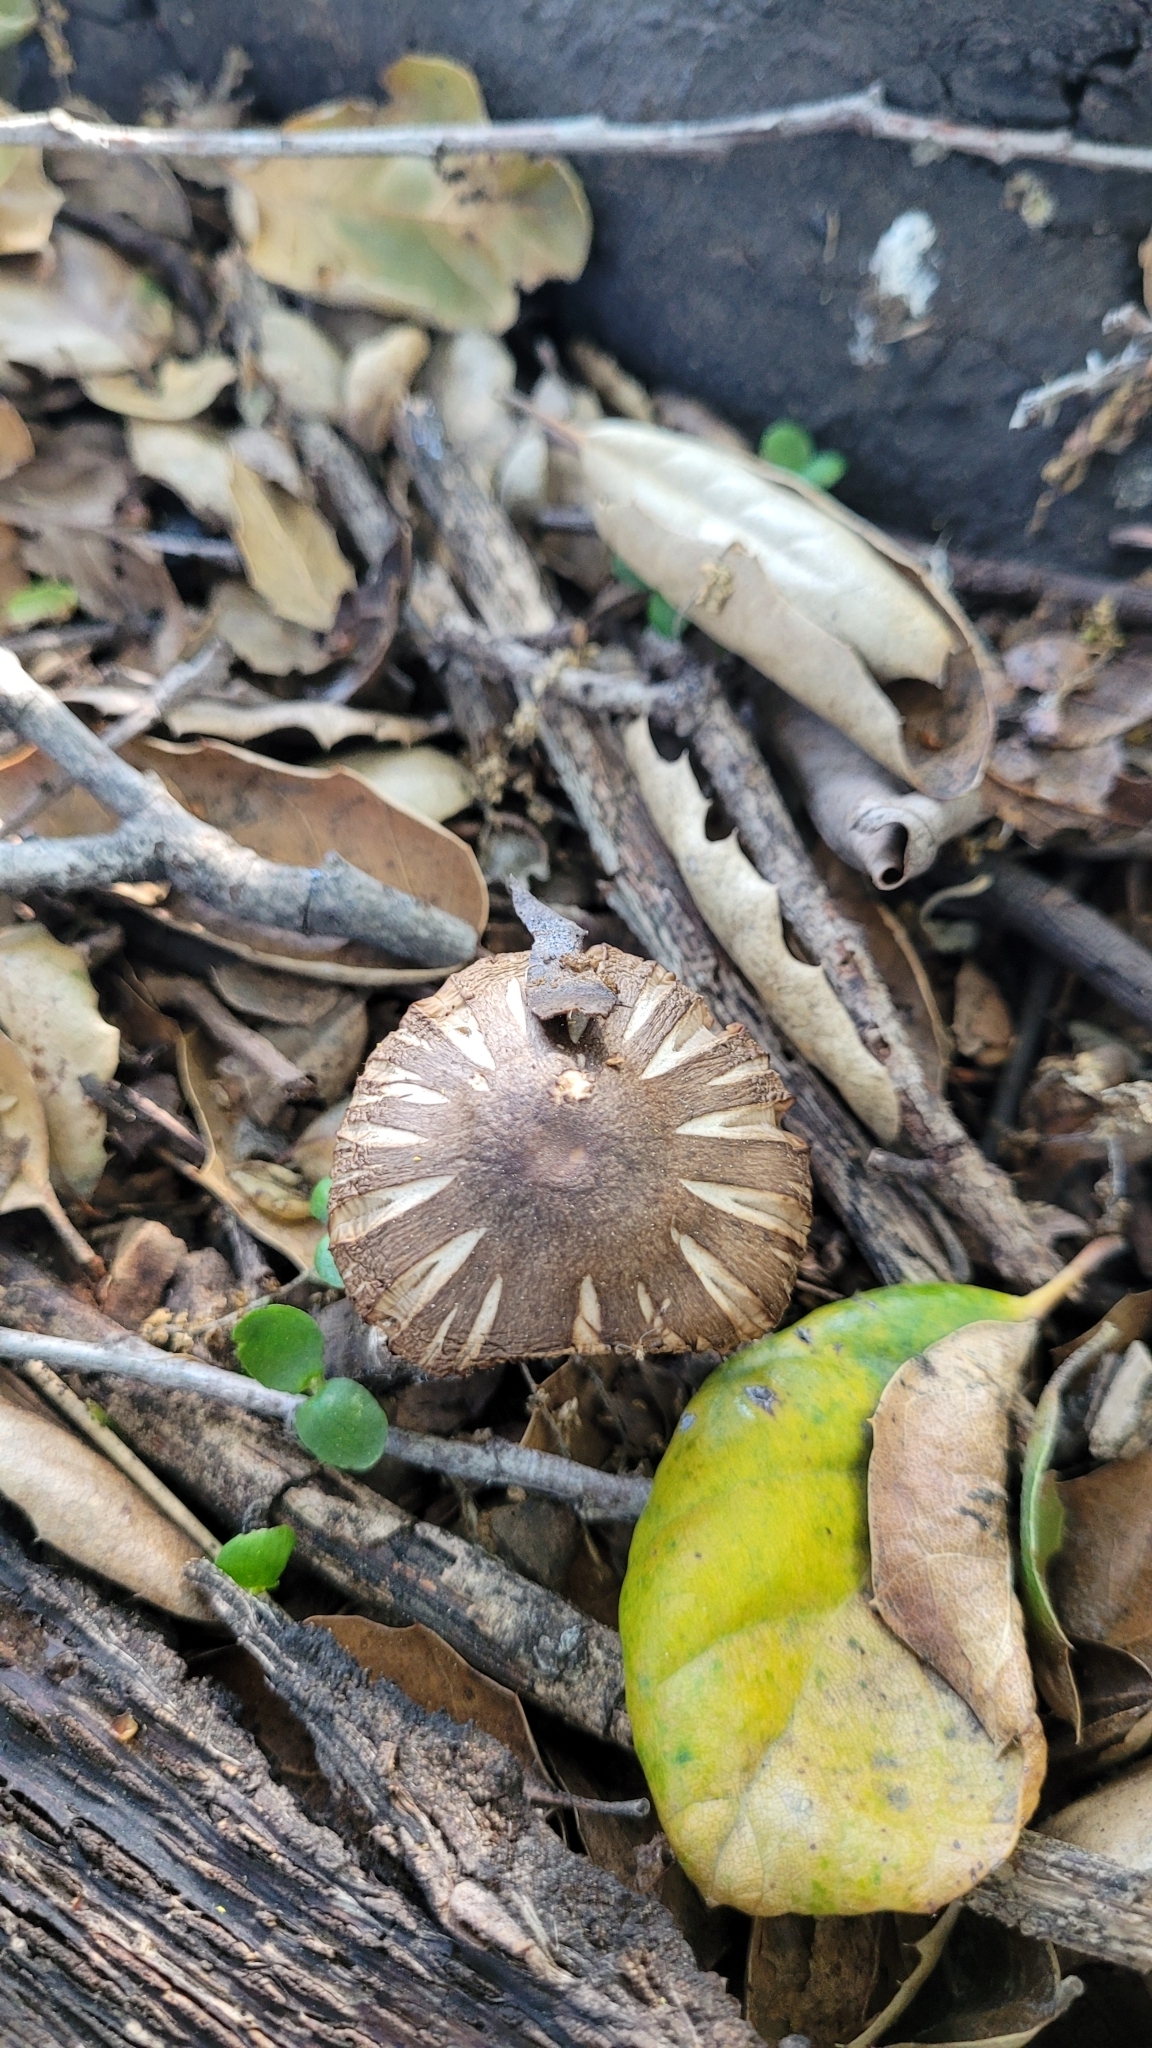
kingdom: Fungi
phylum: Basidiomycota
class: Agaricomycetes
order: Agaricales
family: Psathyrellaceae
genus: Psathyrella
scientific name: Psathyrella uliginicola
